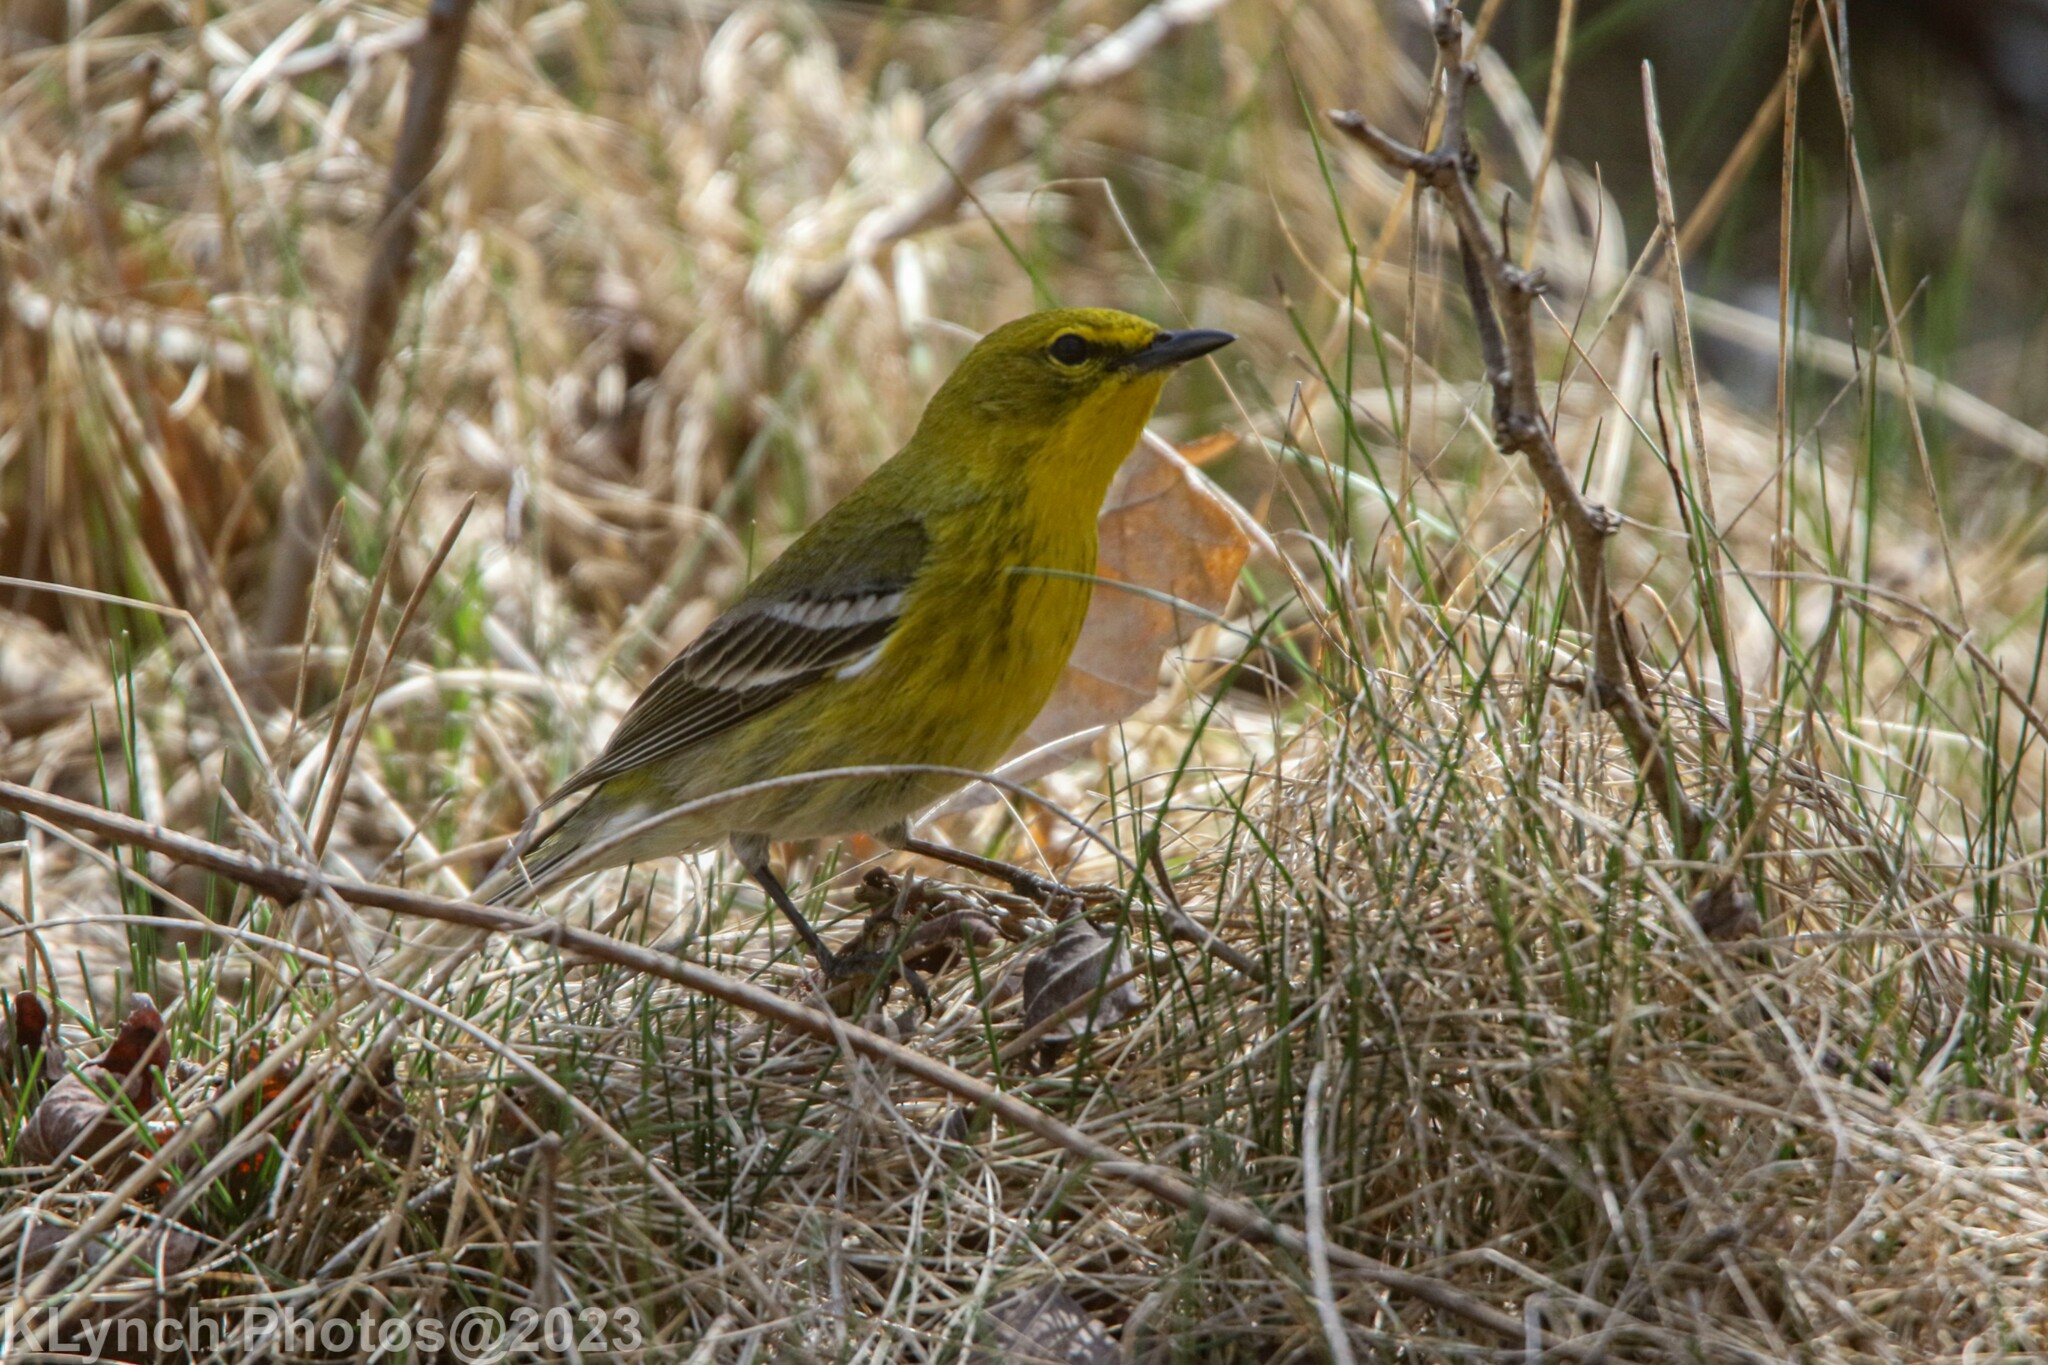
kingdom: Animalia
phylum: Chordata
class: Aves
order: Passeriformes
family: Parulidae
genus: Setophaga
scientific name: Setophaga pinus
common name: Pine warbler
